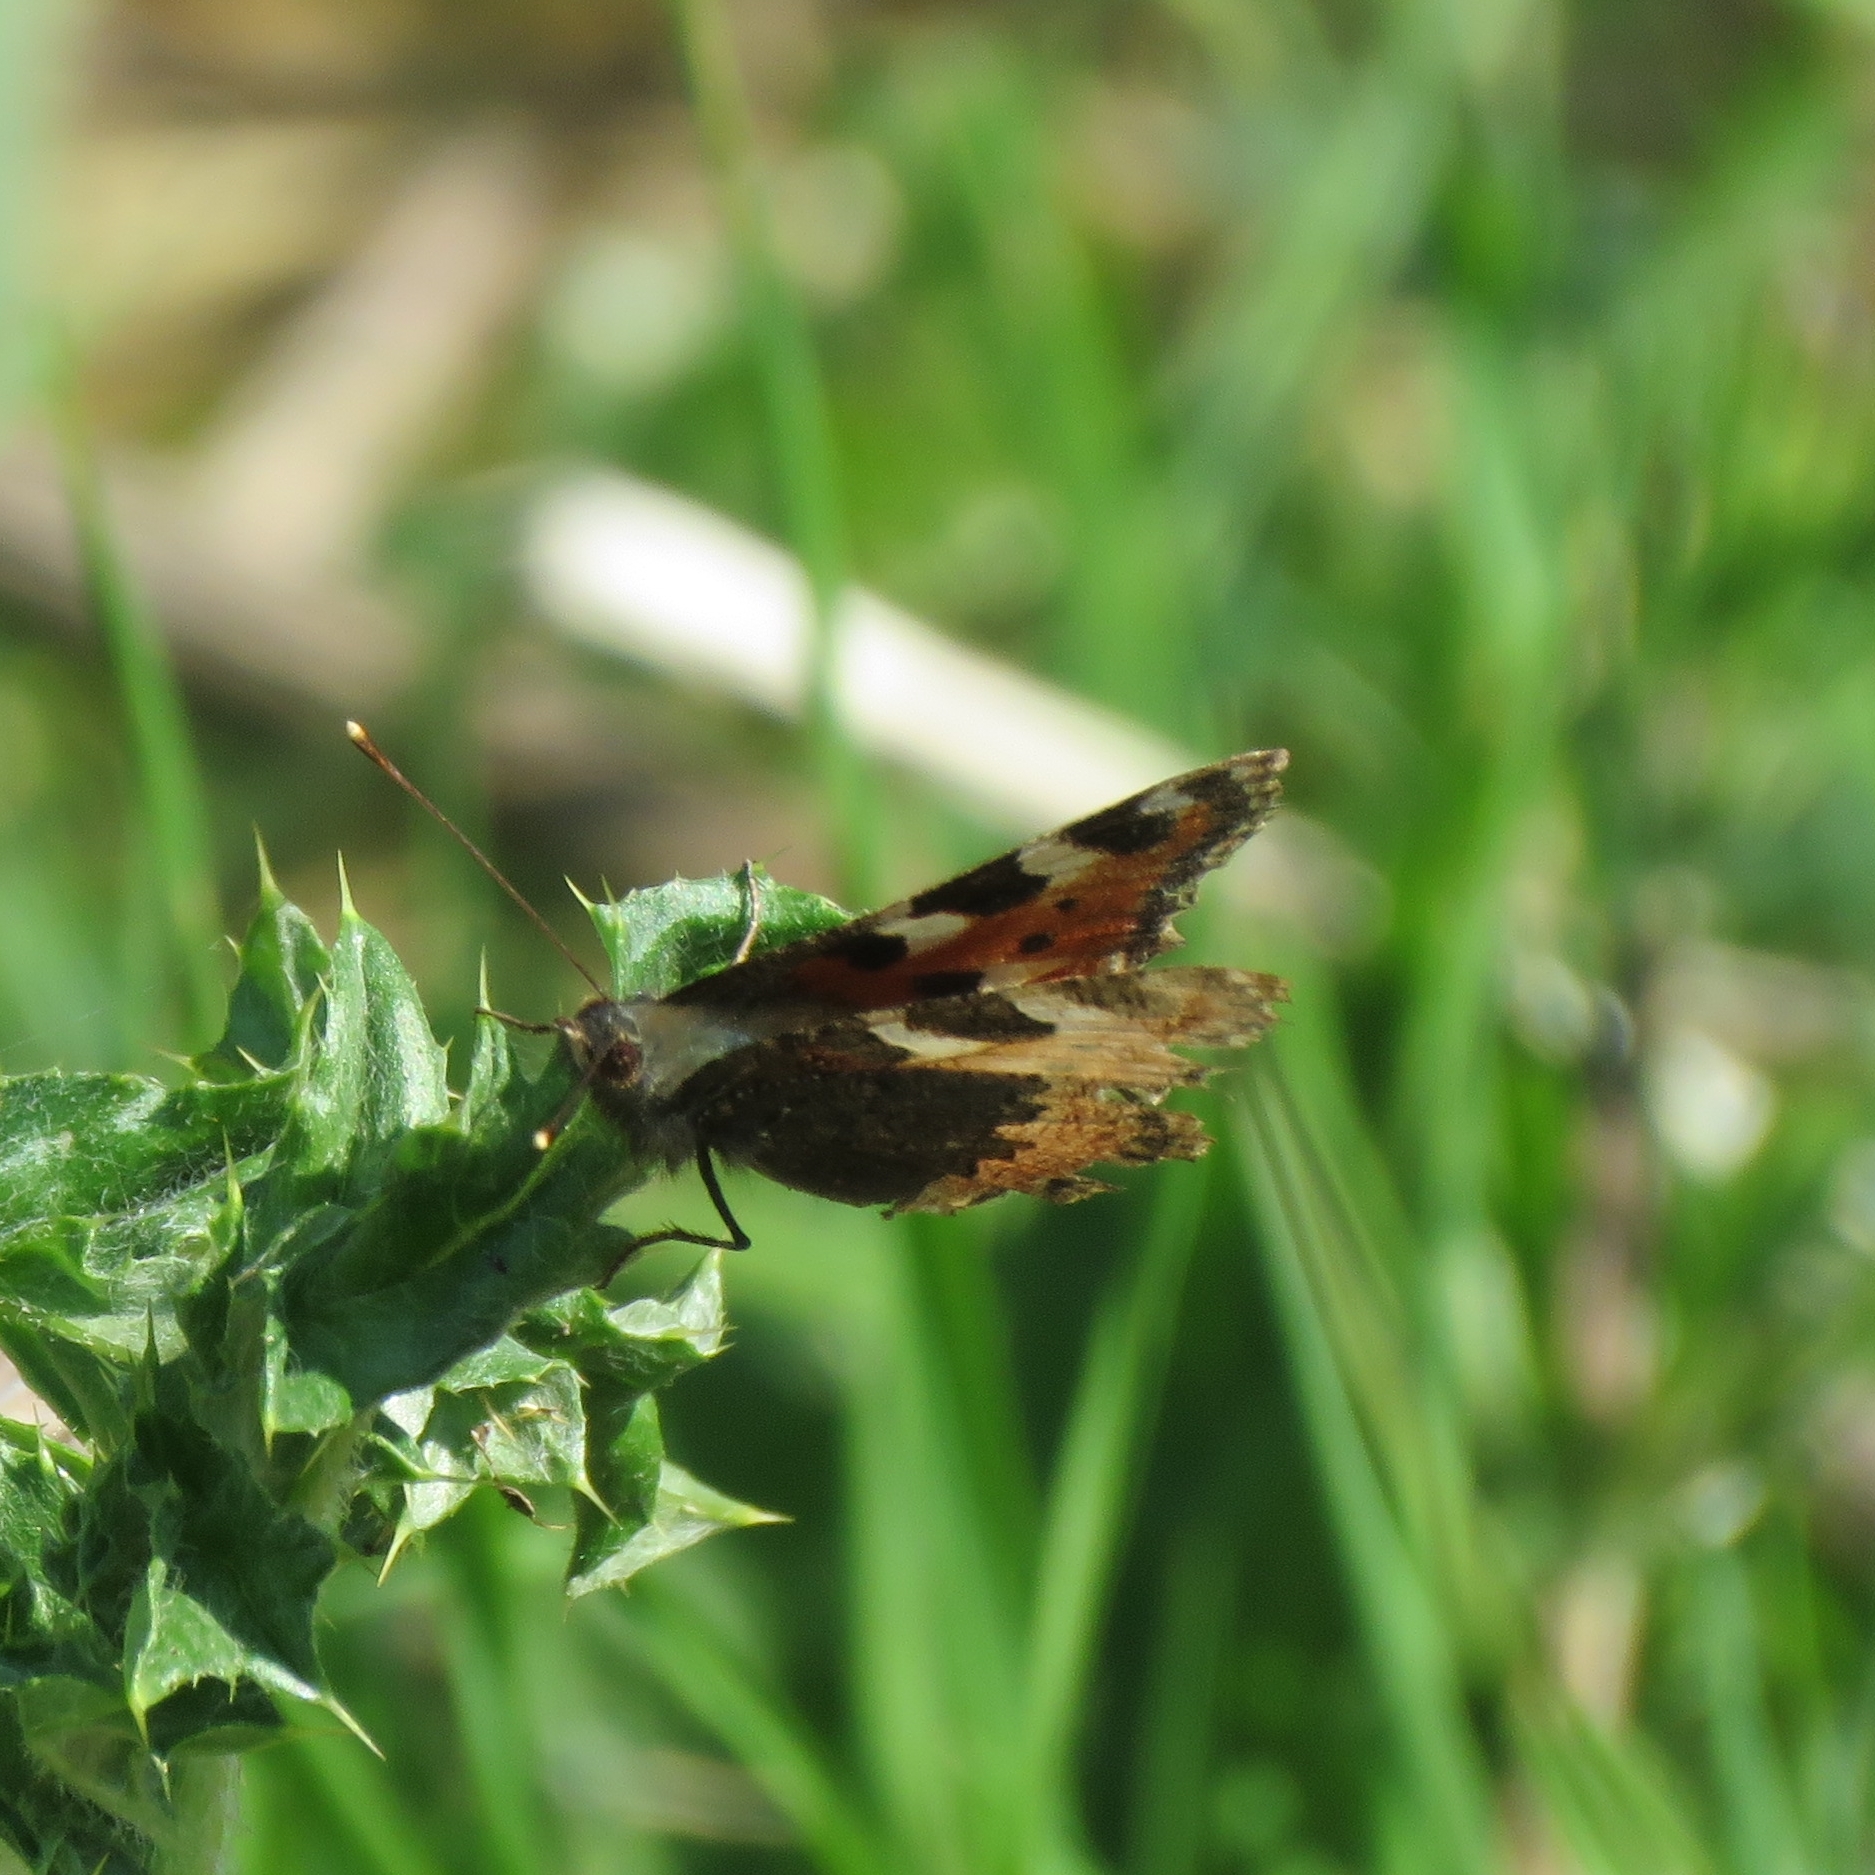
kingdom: Animalia
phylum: Arthropoda
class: Insecta
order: Lepidoptera
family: Nymphalidae
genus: Aglais
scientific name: Aglais urticae
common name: Small tortoiseshell
